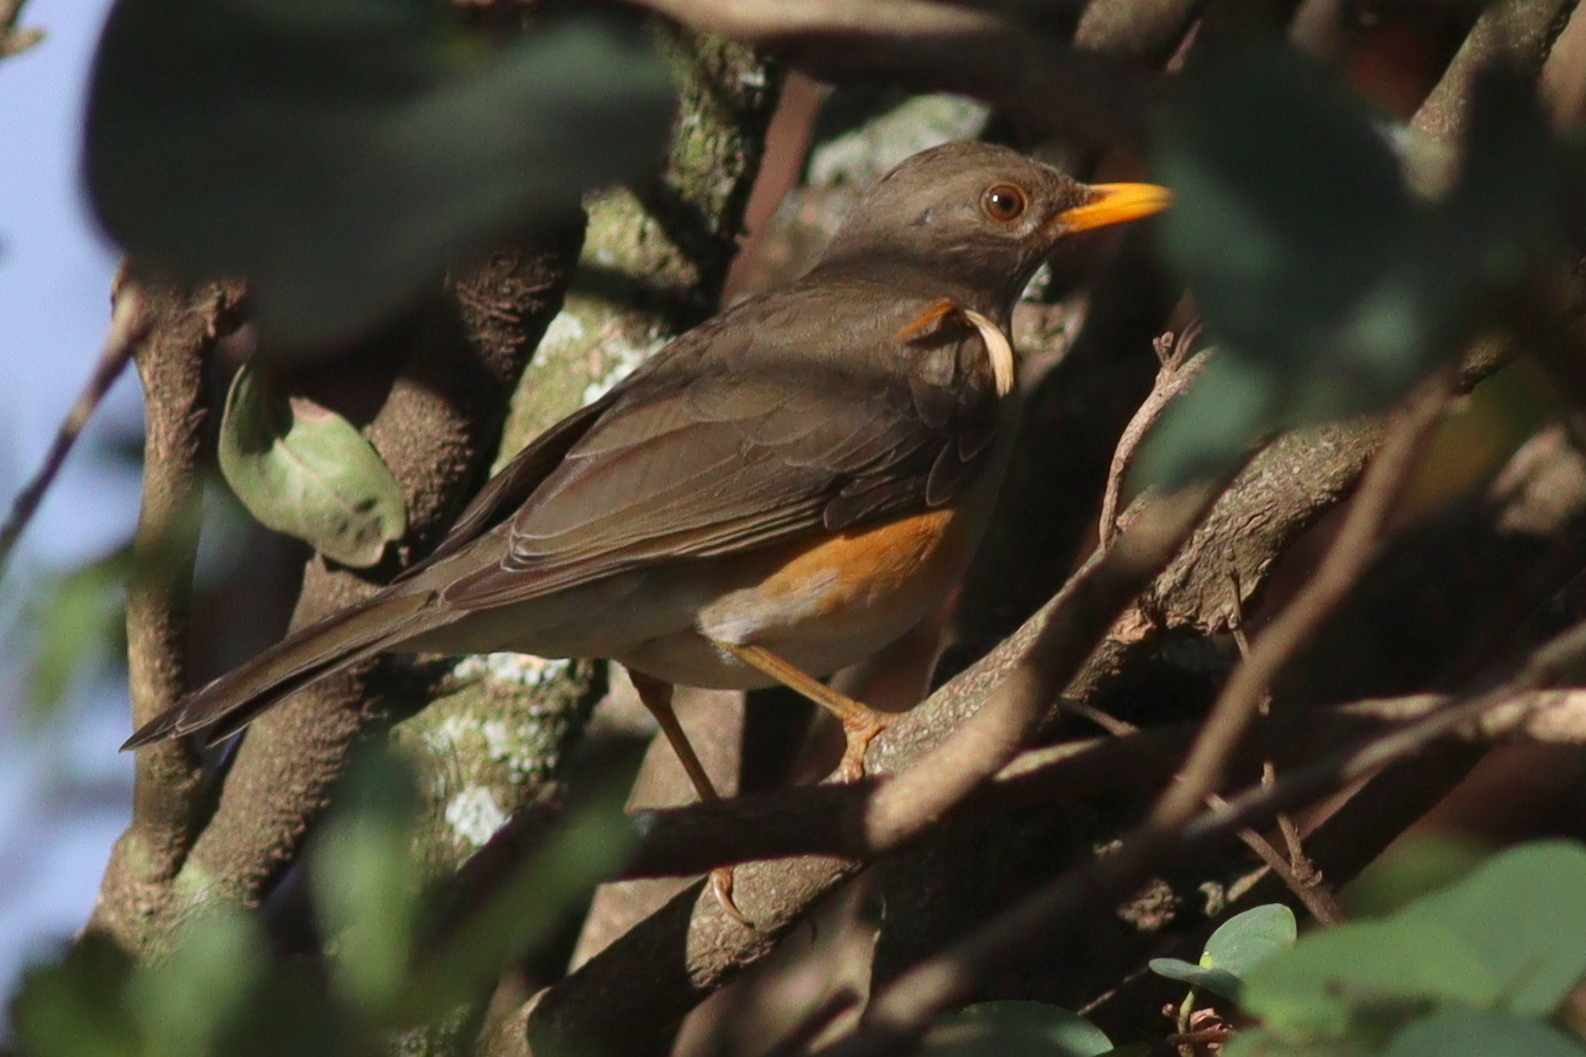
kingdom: Animalia
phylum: Chordata
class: Aves
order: Passeriformes
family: Turdidae
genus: Turdus
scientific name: Turdus pelios
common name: African thrush
